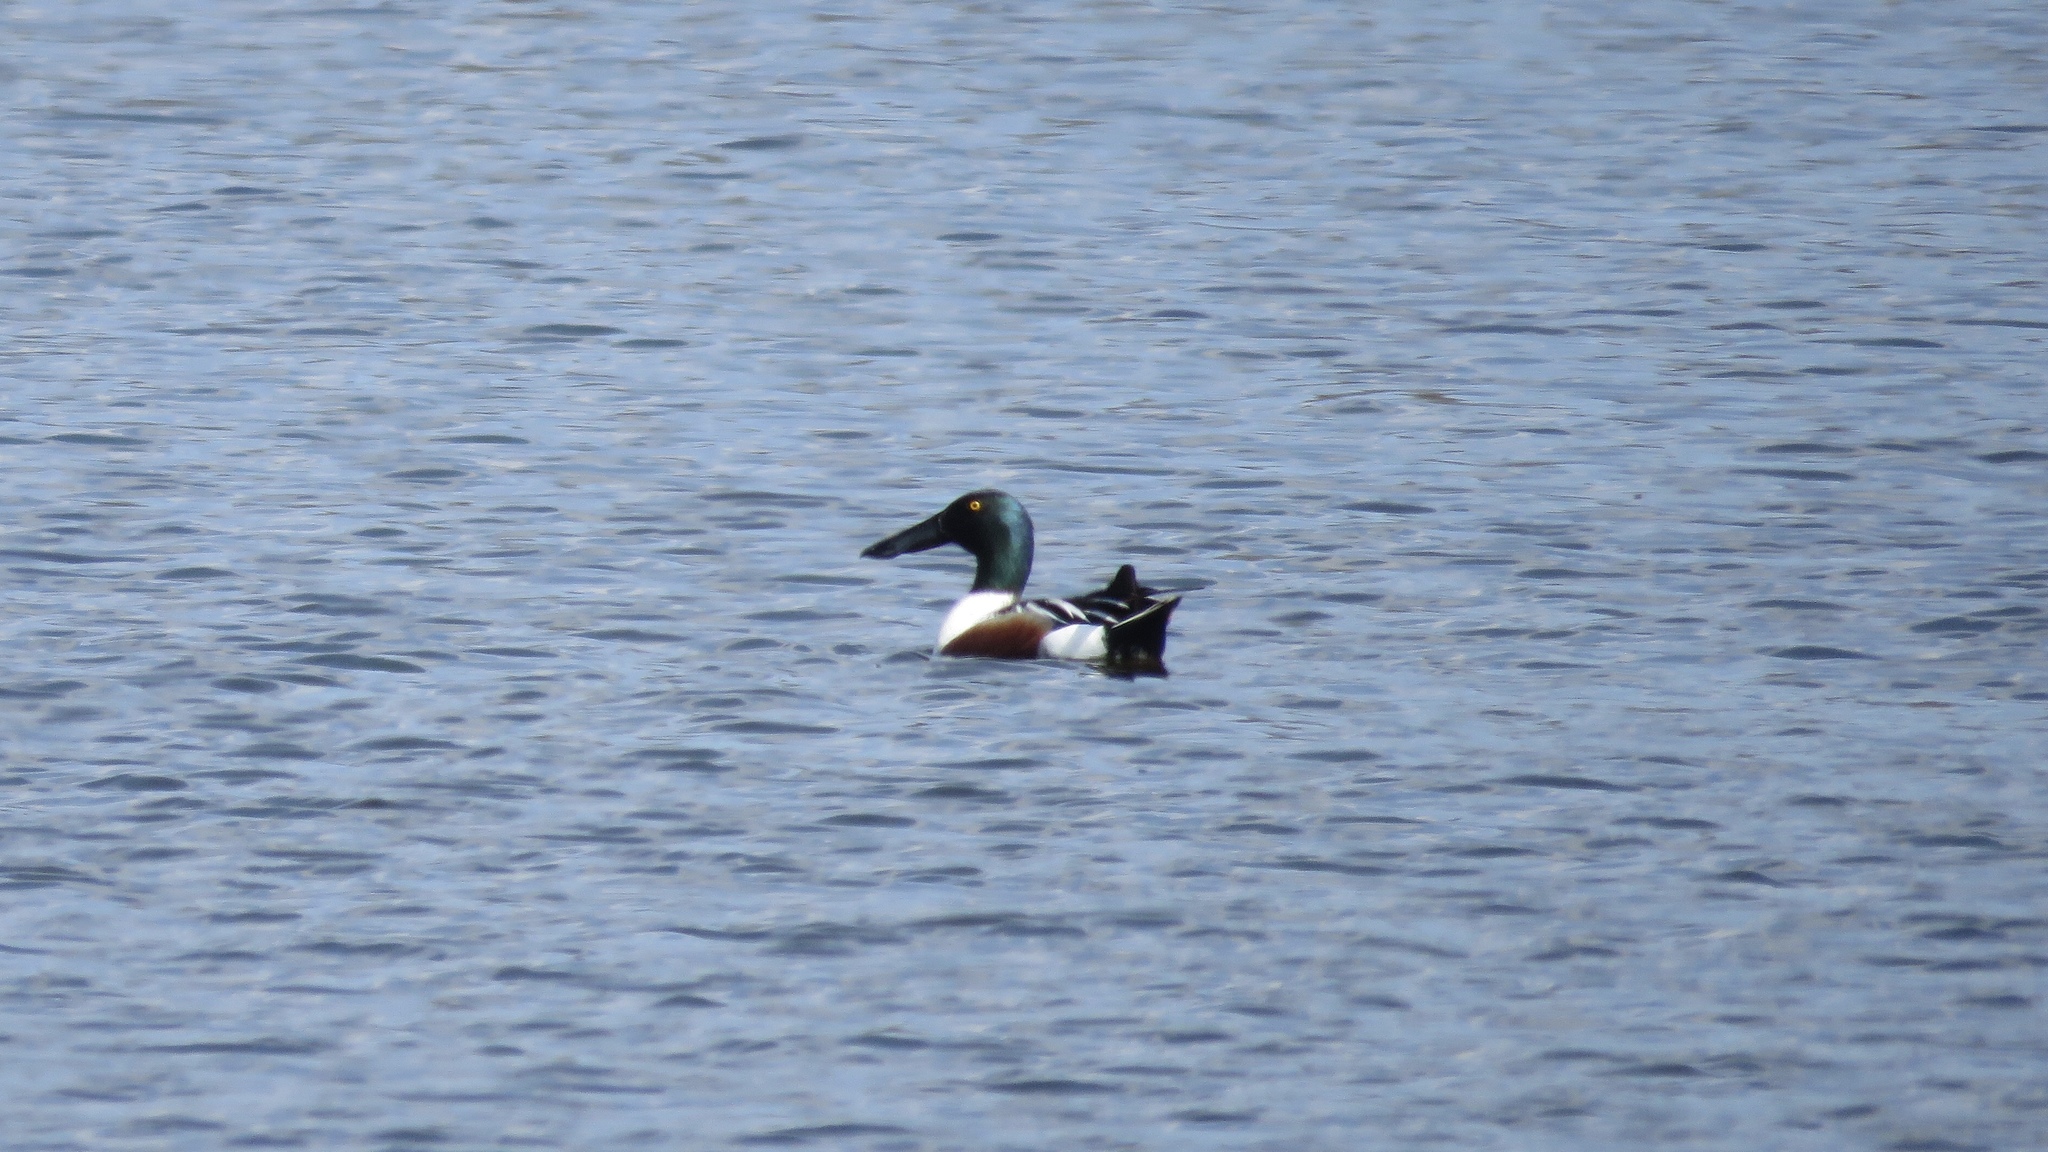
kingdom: Animalia
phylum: Chordata
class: Aves
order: Anseriformes
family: Anatidae
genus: Spatula
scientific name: Spatula clypeata
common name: Northern shoveler
